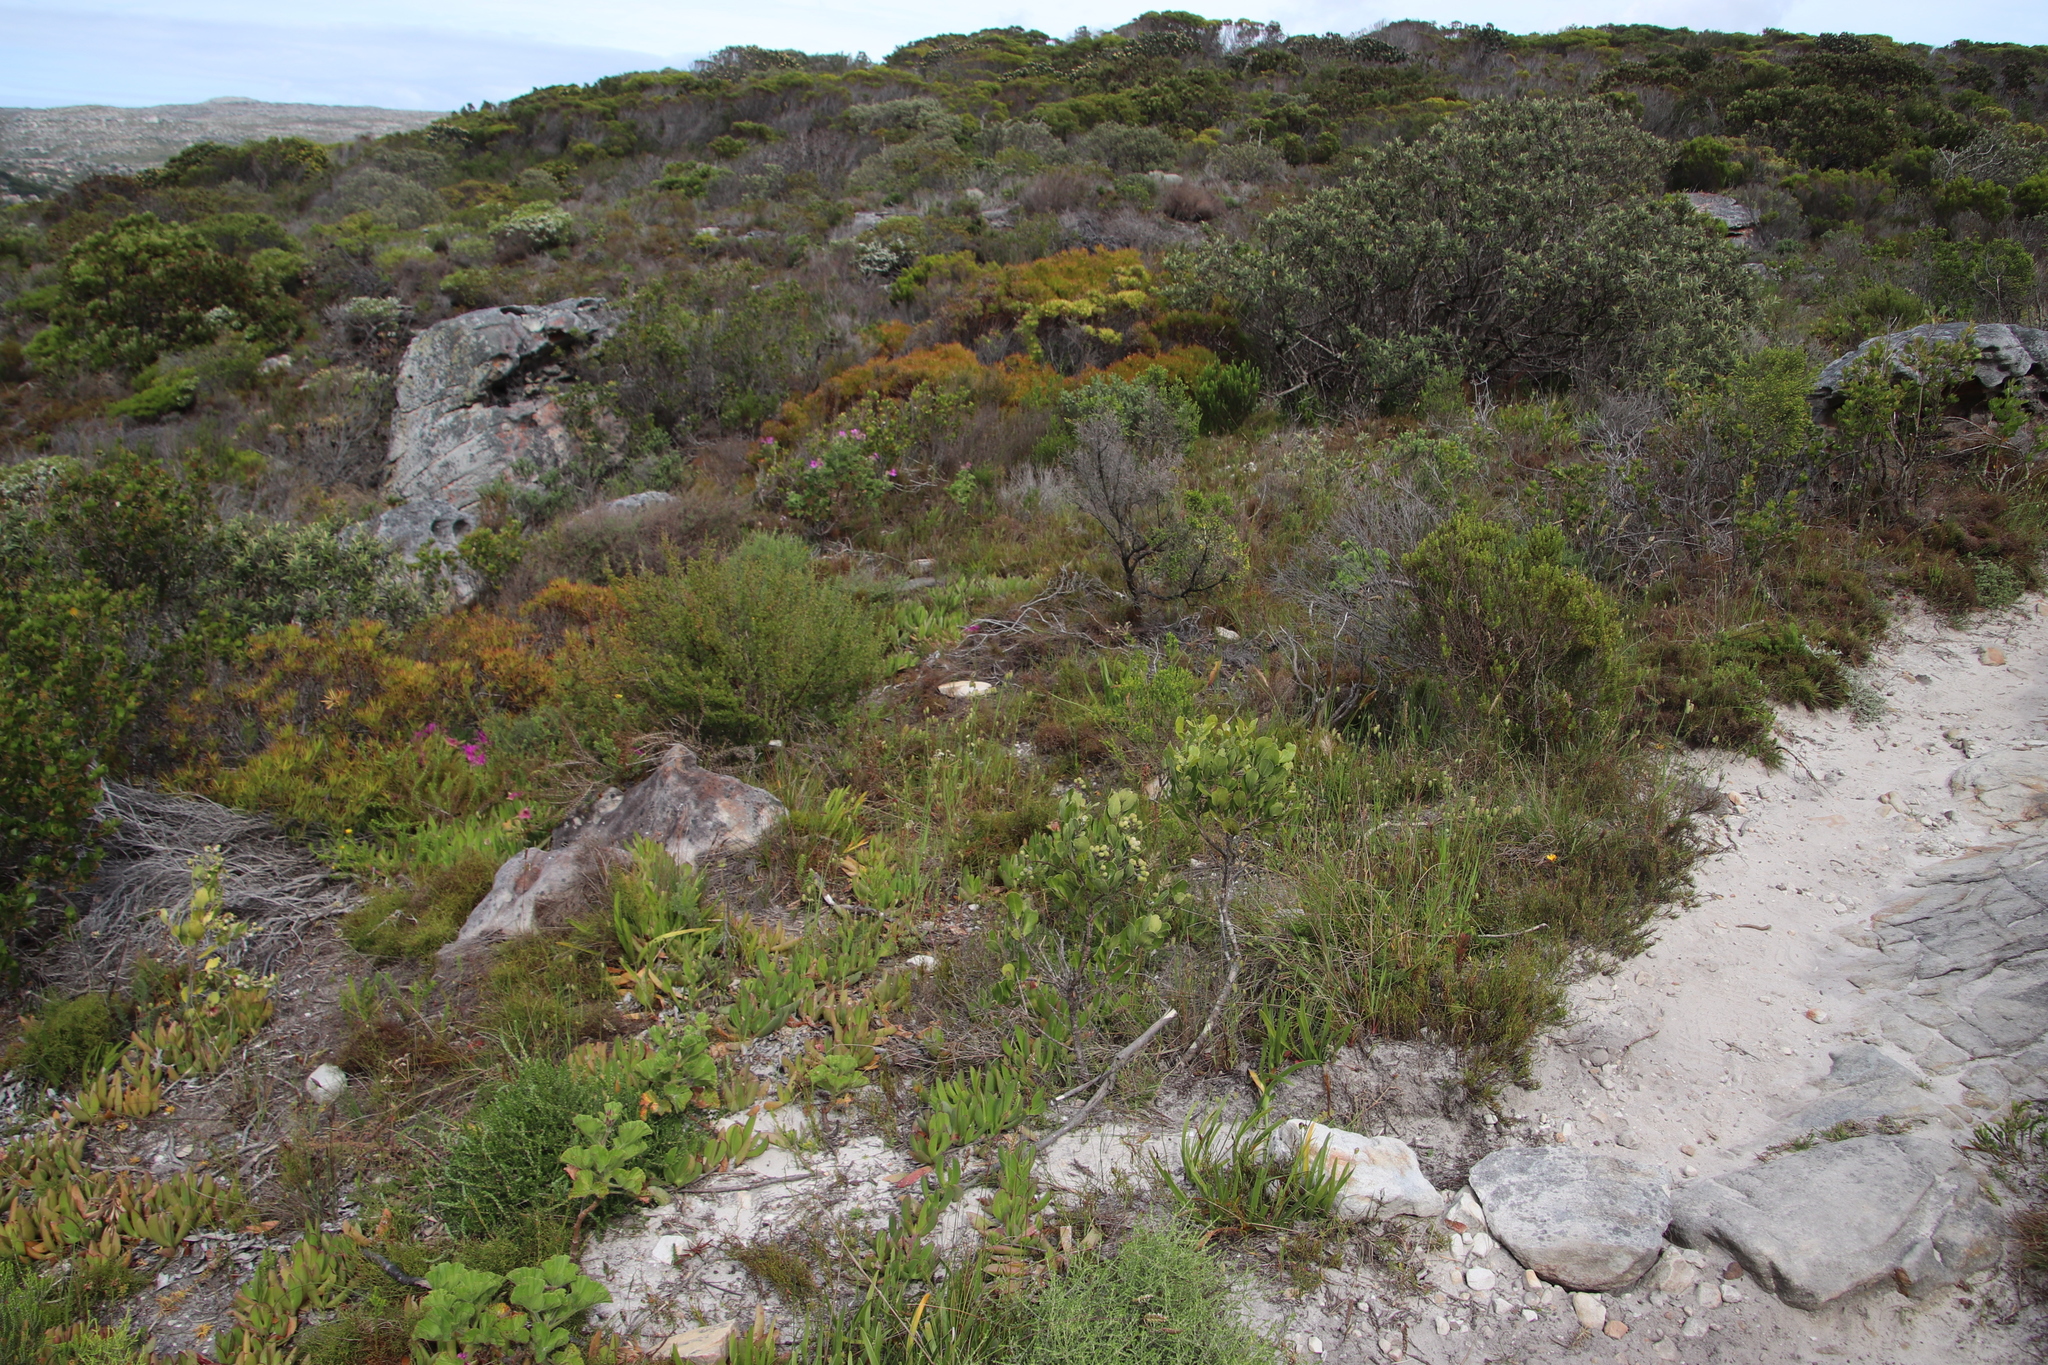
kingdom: Plantae
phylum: Tracheophyta
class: Magnoliopsida
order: Lamiales
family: Oleaceae
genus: Olea
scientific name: Olea capensis
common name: Black ironwood
